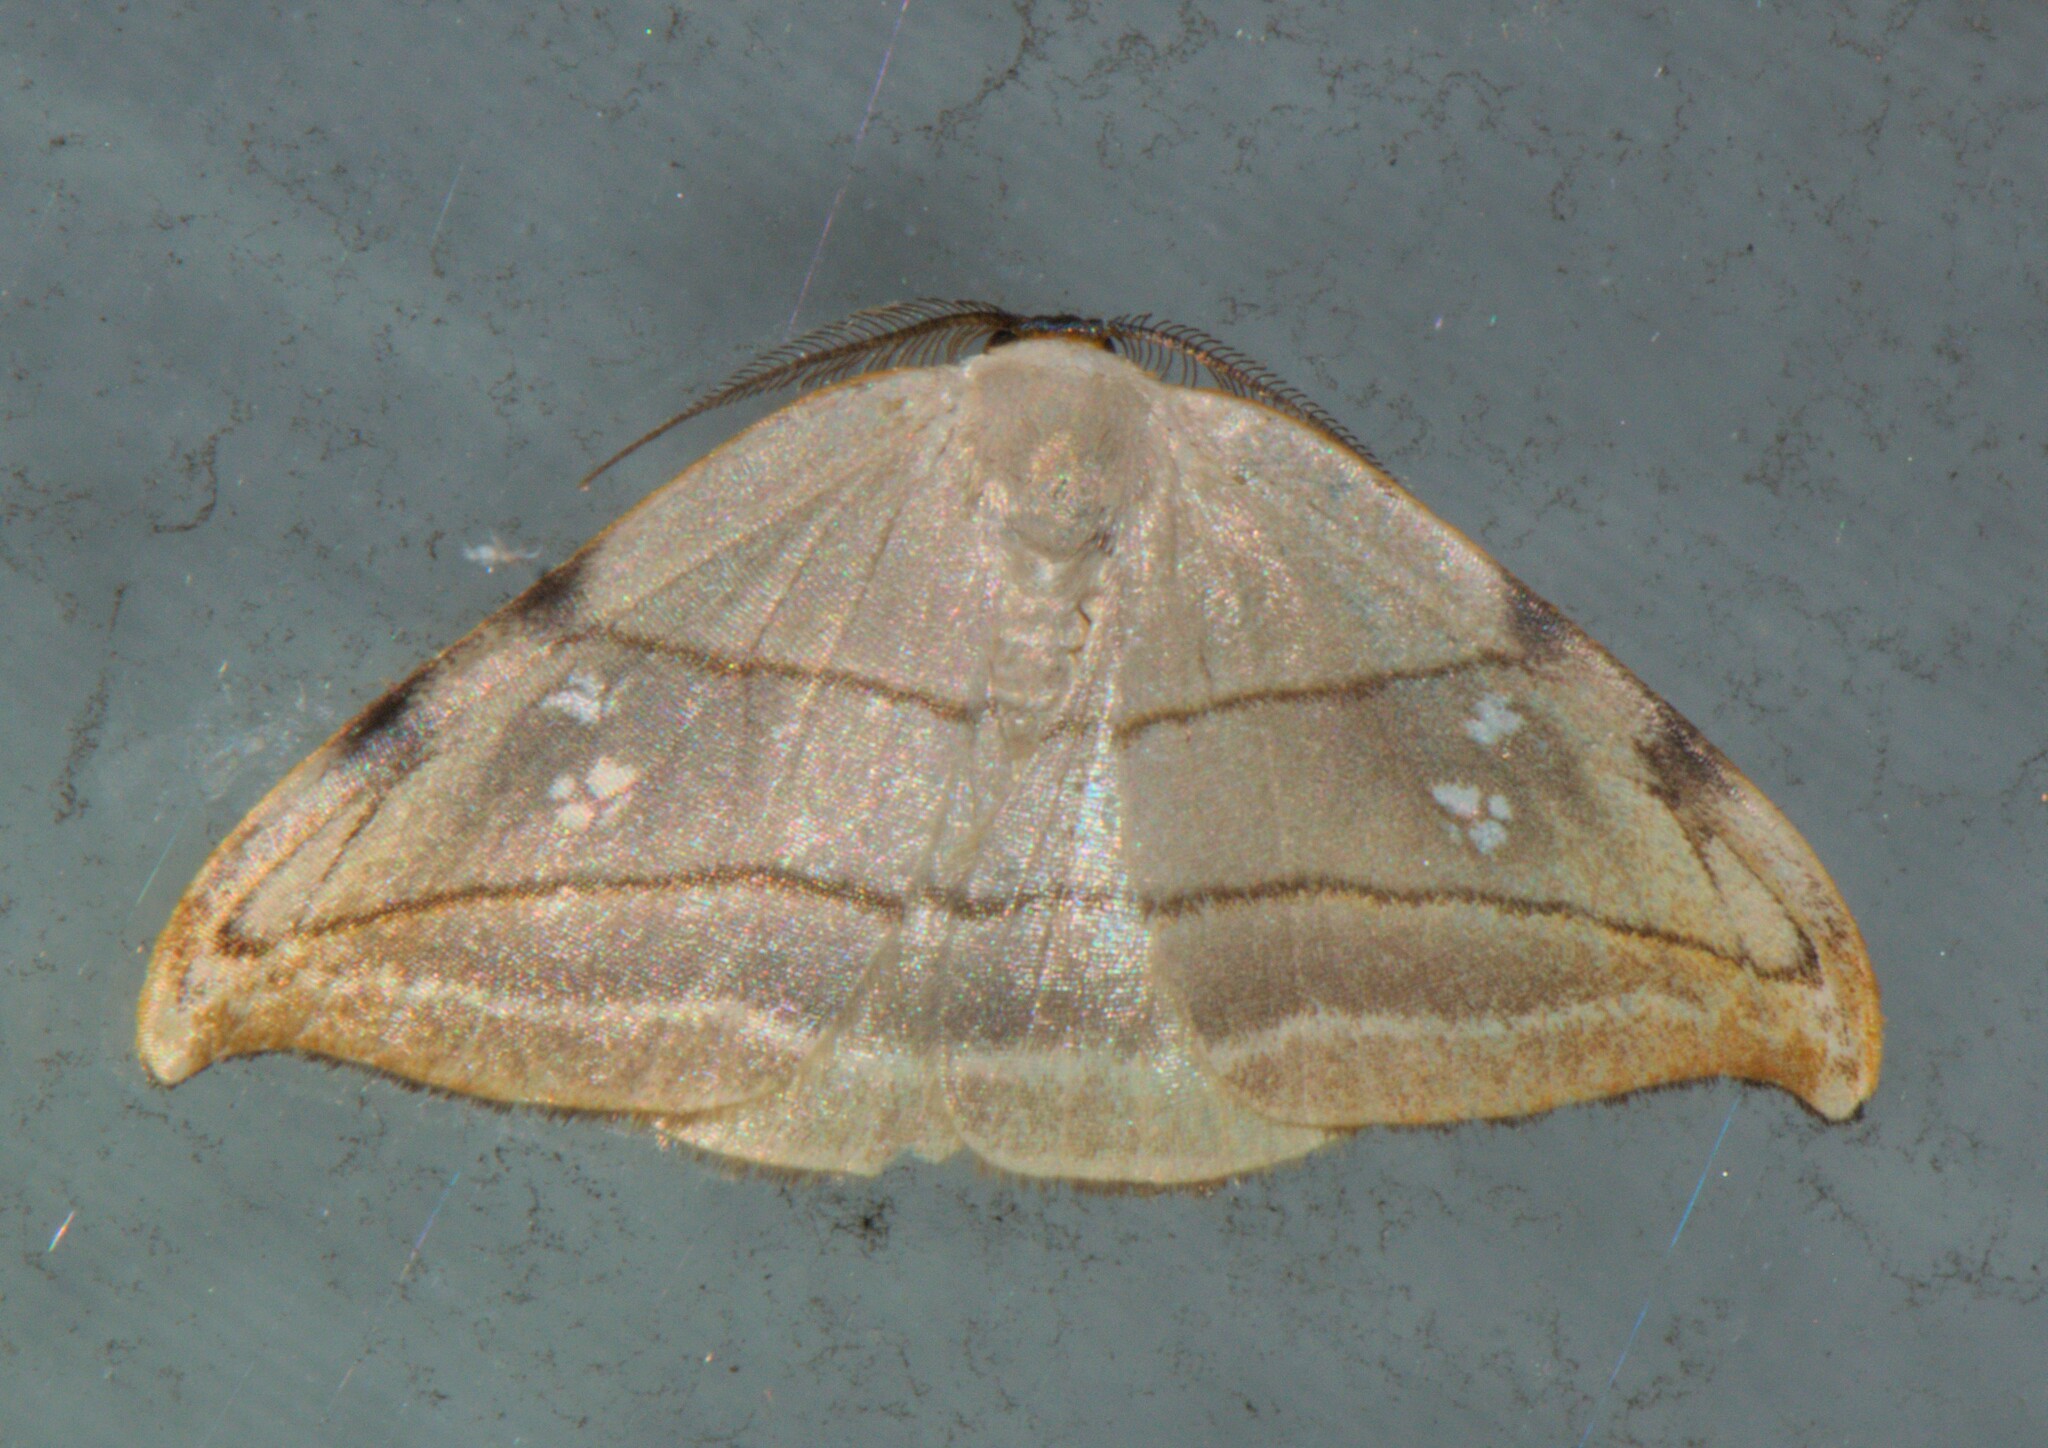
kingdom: Animalia
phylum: Arthropoda
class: Insecta
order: Lepidoptera
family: Drepanidae
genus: Nordstromia
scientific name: Nordstromia vira
